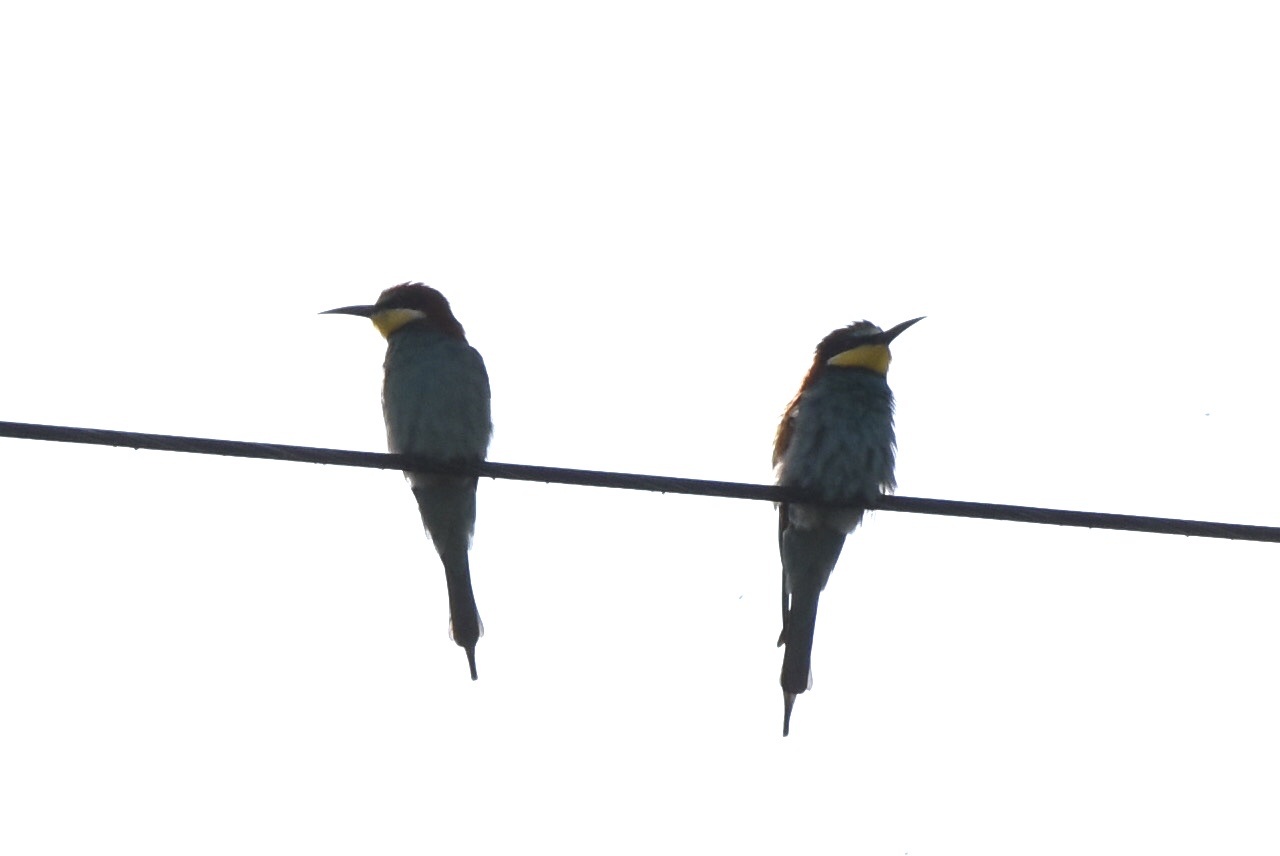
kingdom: Animalia
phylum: Chordata
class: Aves
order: Coraciiformes
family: Meropidae
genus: Merops
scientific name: Merops apiaster
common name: European bee-eater
